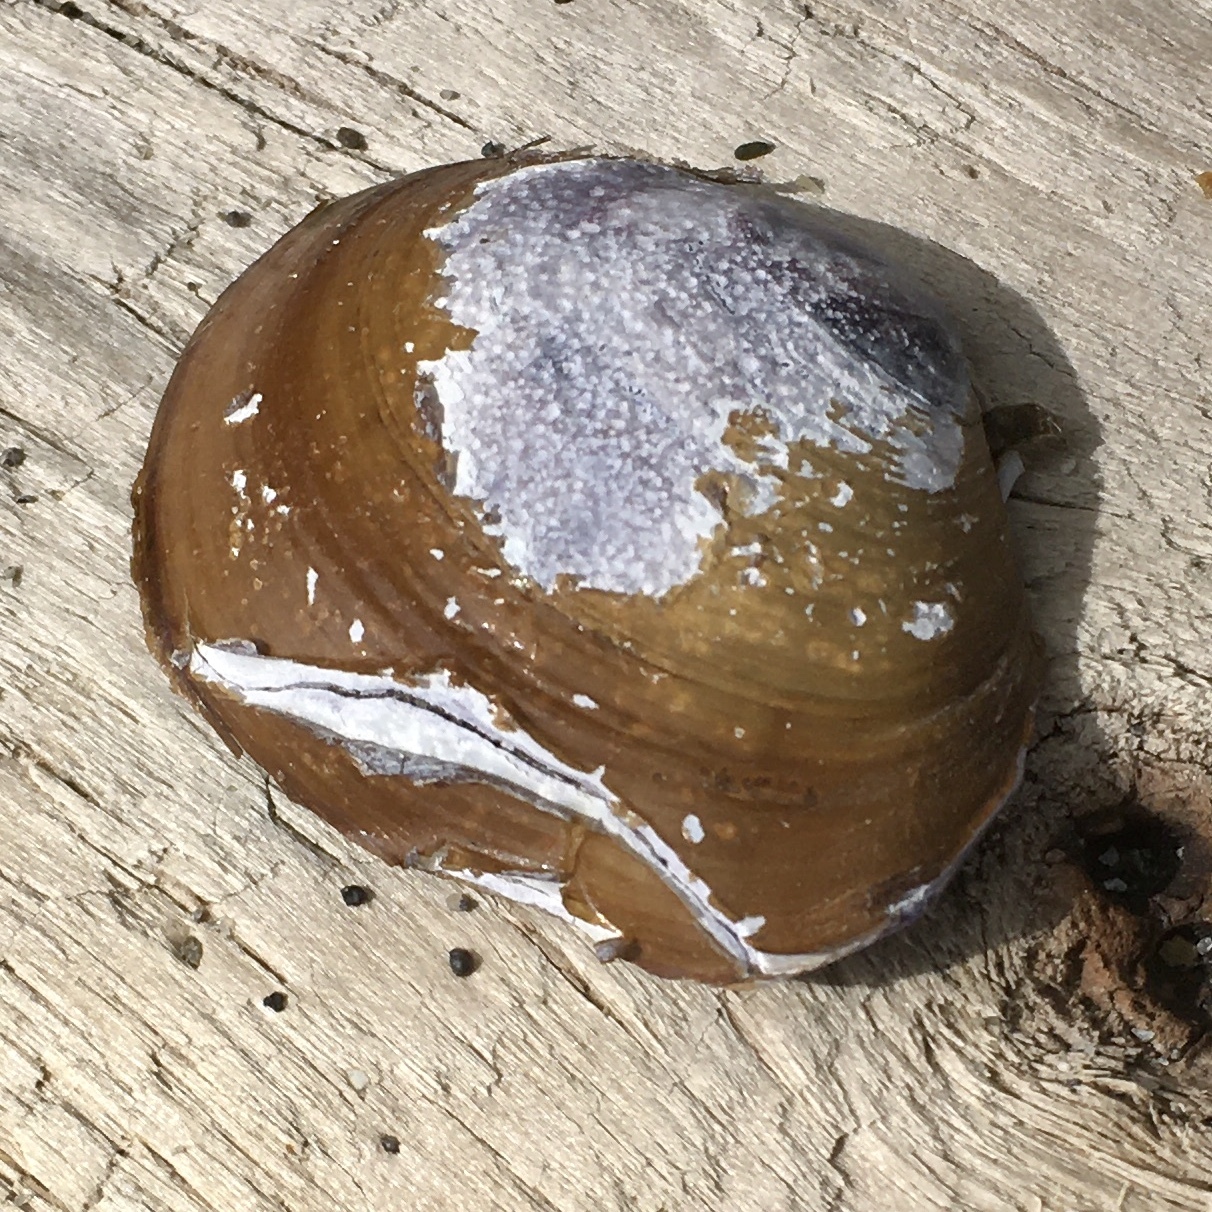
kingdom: Animalia
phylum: Mollusca
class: Bivalvia
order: Cardiida
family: Psammobiidae
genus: Nuttallia
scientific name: Nuttallia obscurata
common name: Purple mahogany-clam
